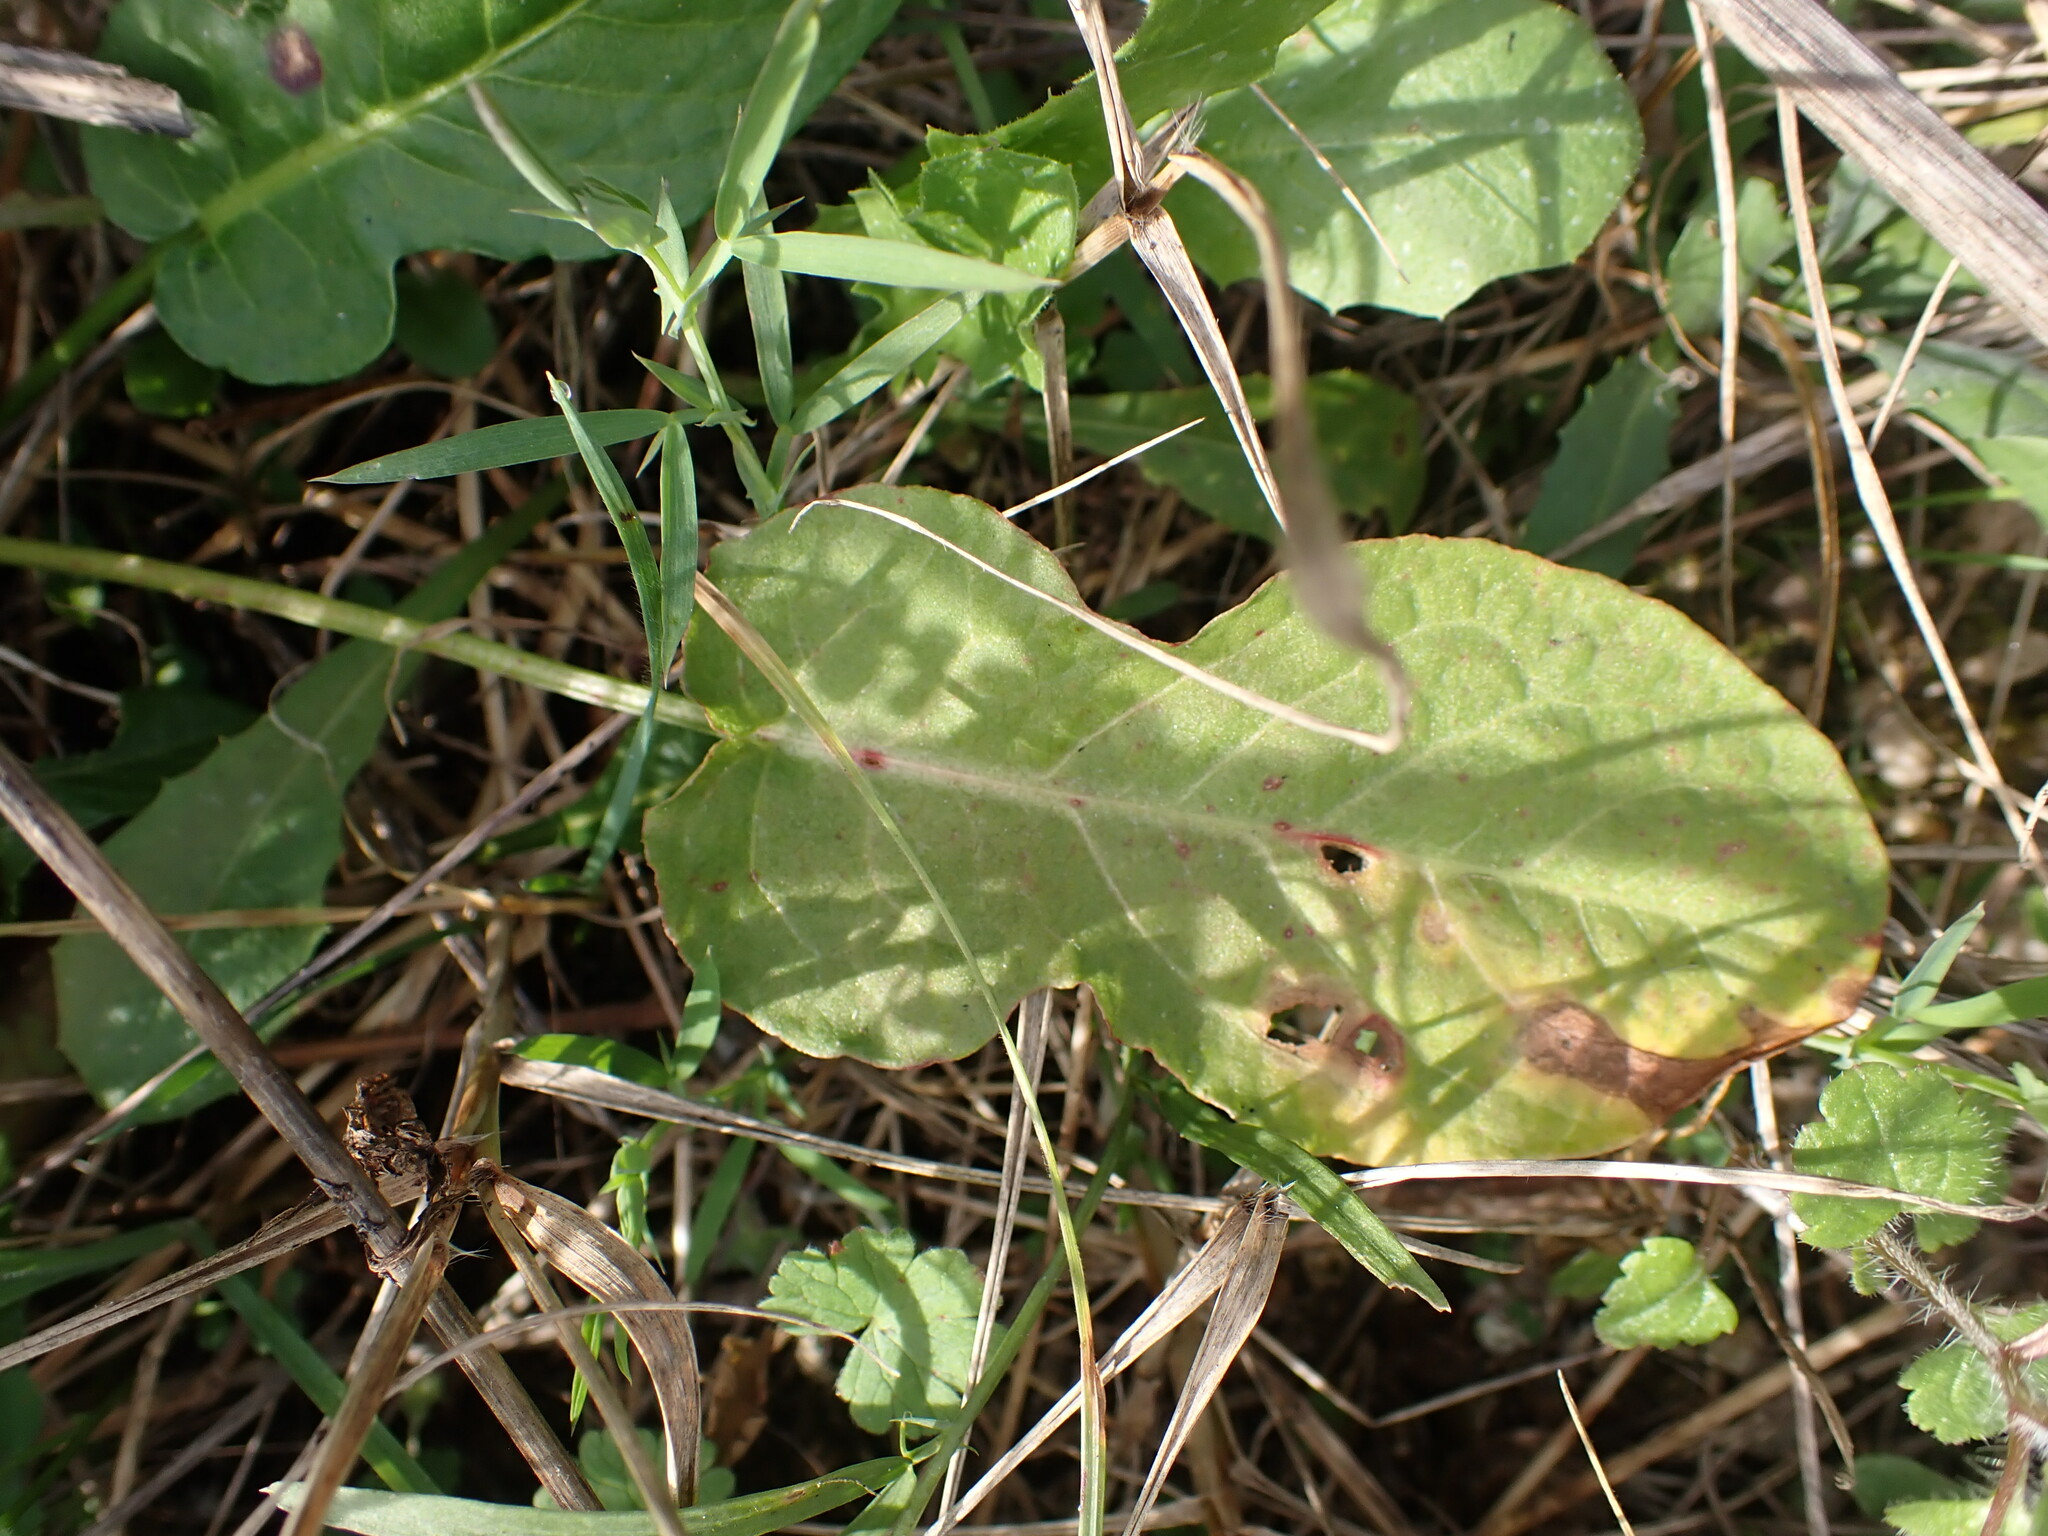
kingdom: Plantae
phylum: Tracheophyta
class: Magnoliopsida
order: Caryophyllales
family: Polygonaceae
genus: Rumex
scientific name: Rumex pulcher
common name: Fiddle dock
